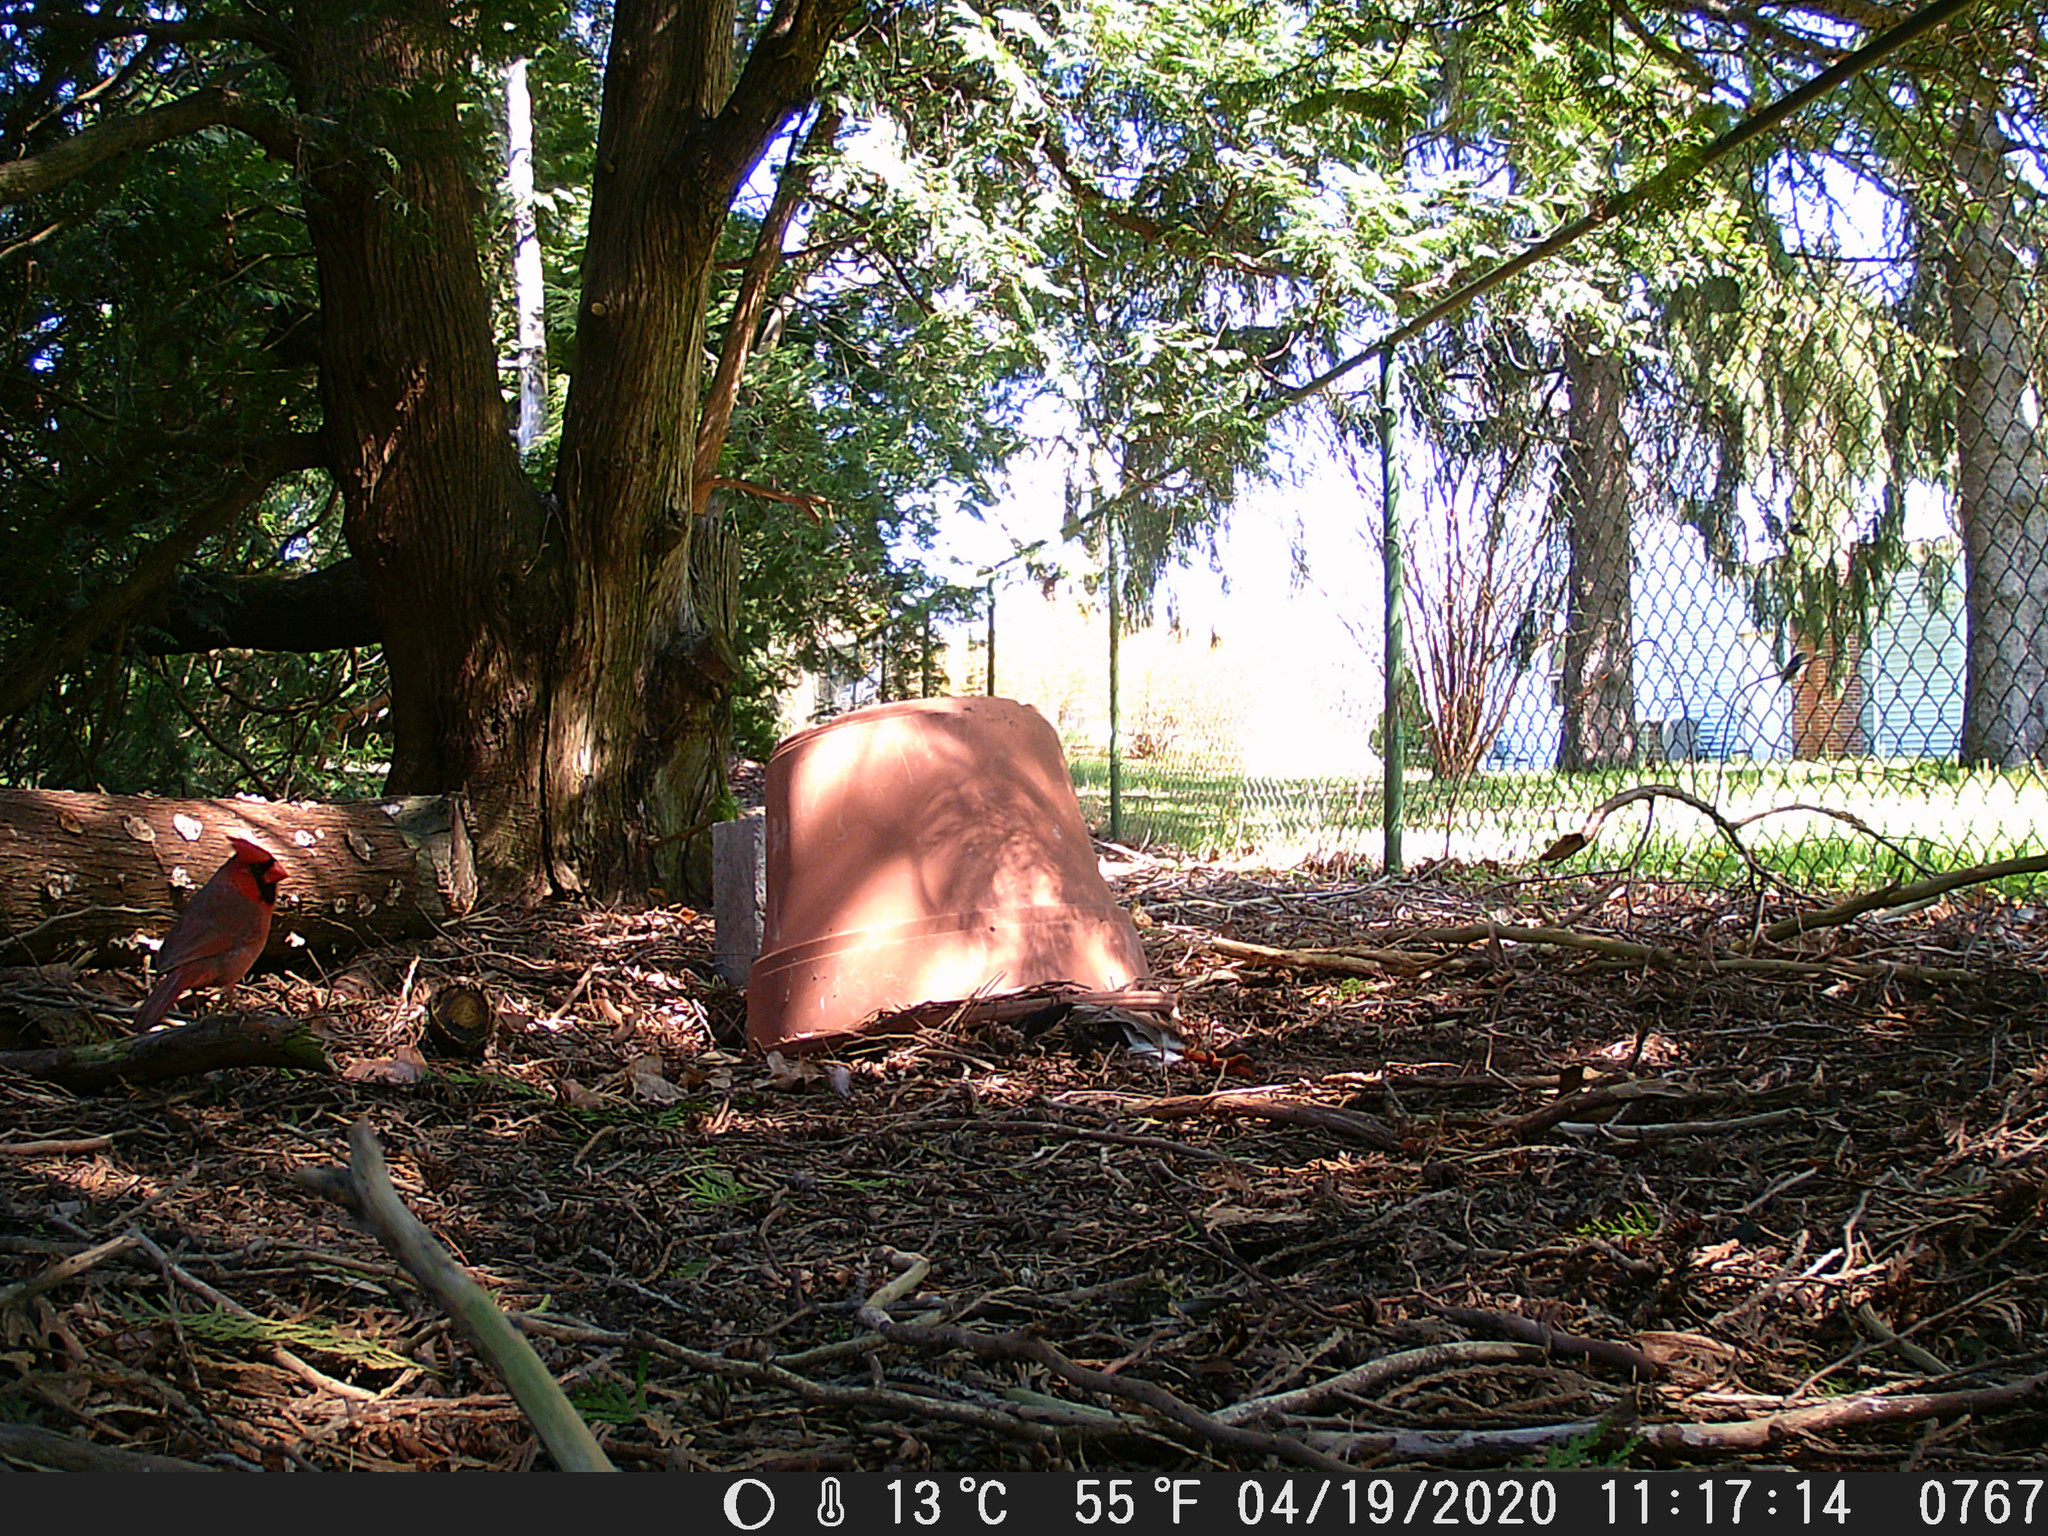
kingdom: Animalia
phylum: Chordata
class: Aves
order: Passeriformes
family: Cardinalidae
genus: Cardinalis
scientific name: Cardinalis cardinalis
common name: Northern cardinal
